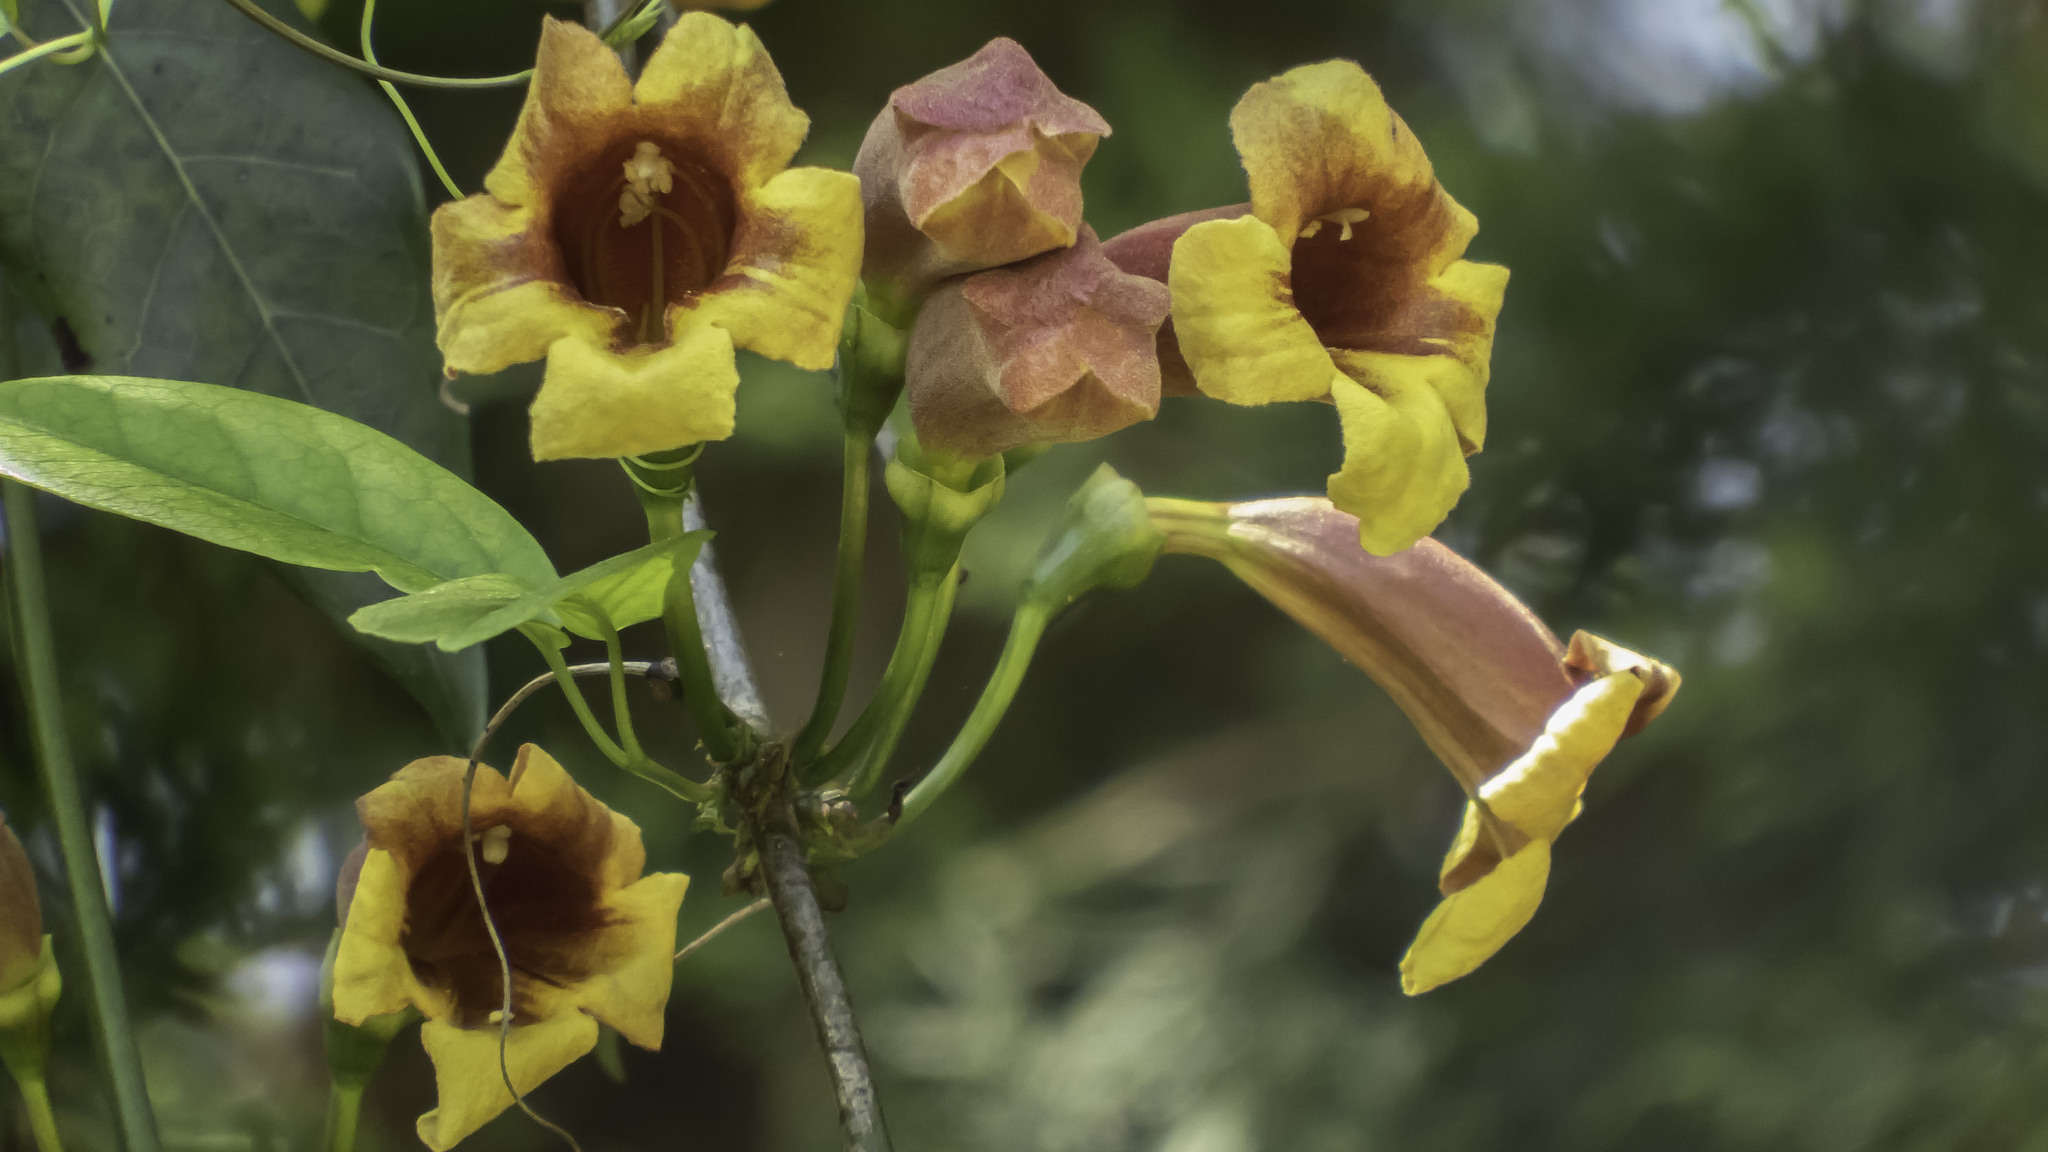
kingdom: Plantae
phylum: Tracheophyta
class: Magnoliopsida
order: Lamiales
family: Bignoniaceae
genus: Bignonia
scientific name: Bignonia capreolata
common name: Crossvine
